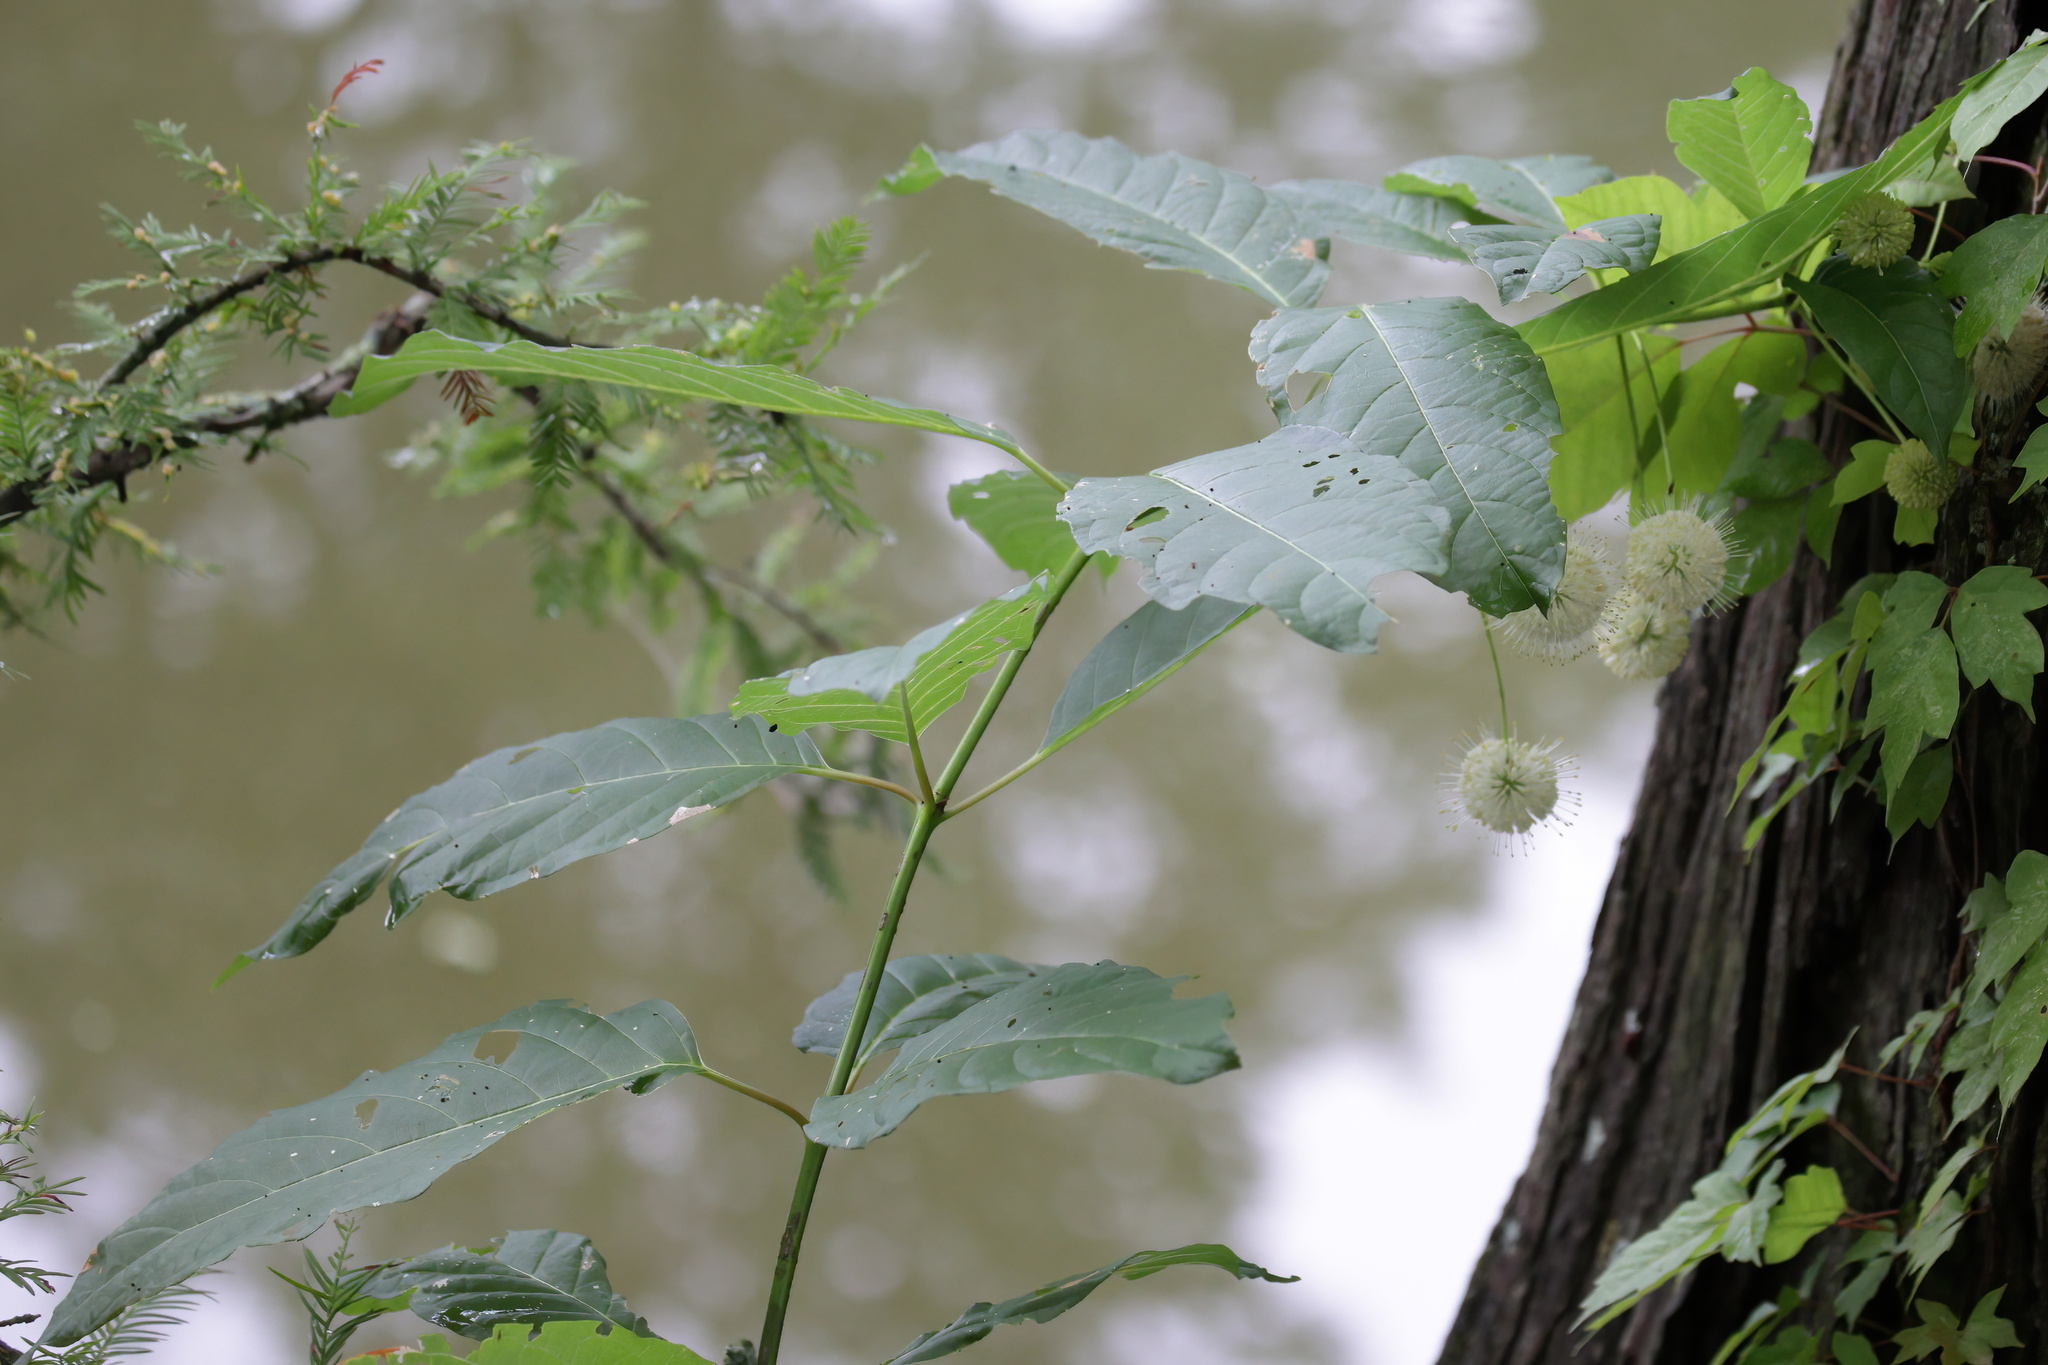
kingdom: Plantae
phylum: Tracheophyta
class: Magnoliopsida
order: Gentianales
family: Rubiaceae
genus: Cephalanthus
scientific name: Cephalanthus occidentalis
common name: Button-willow
